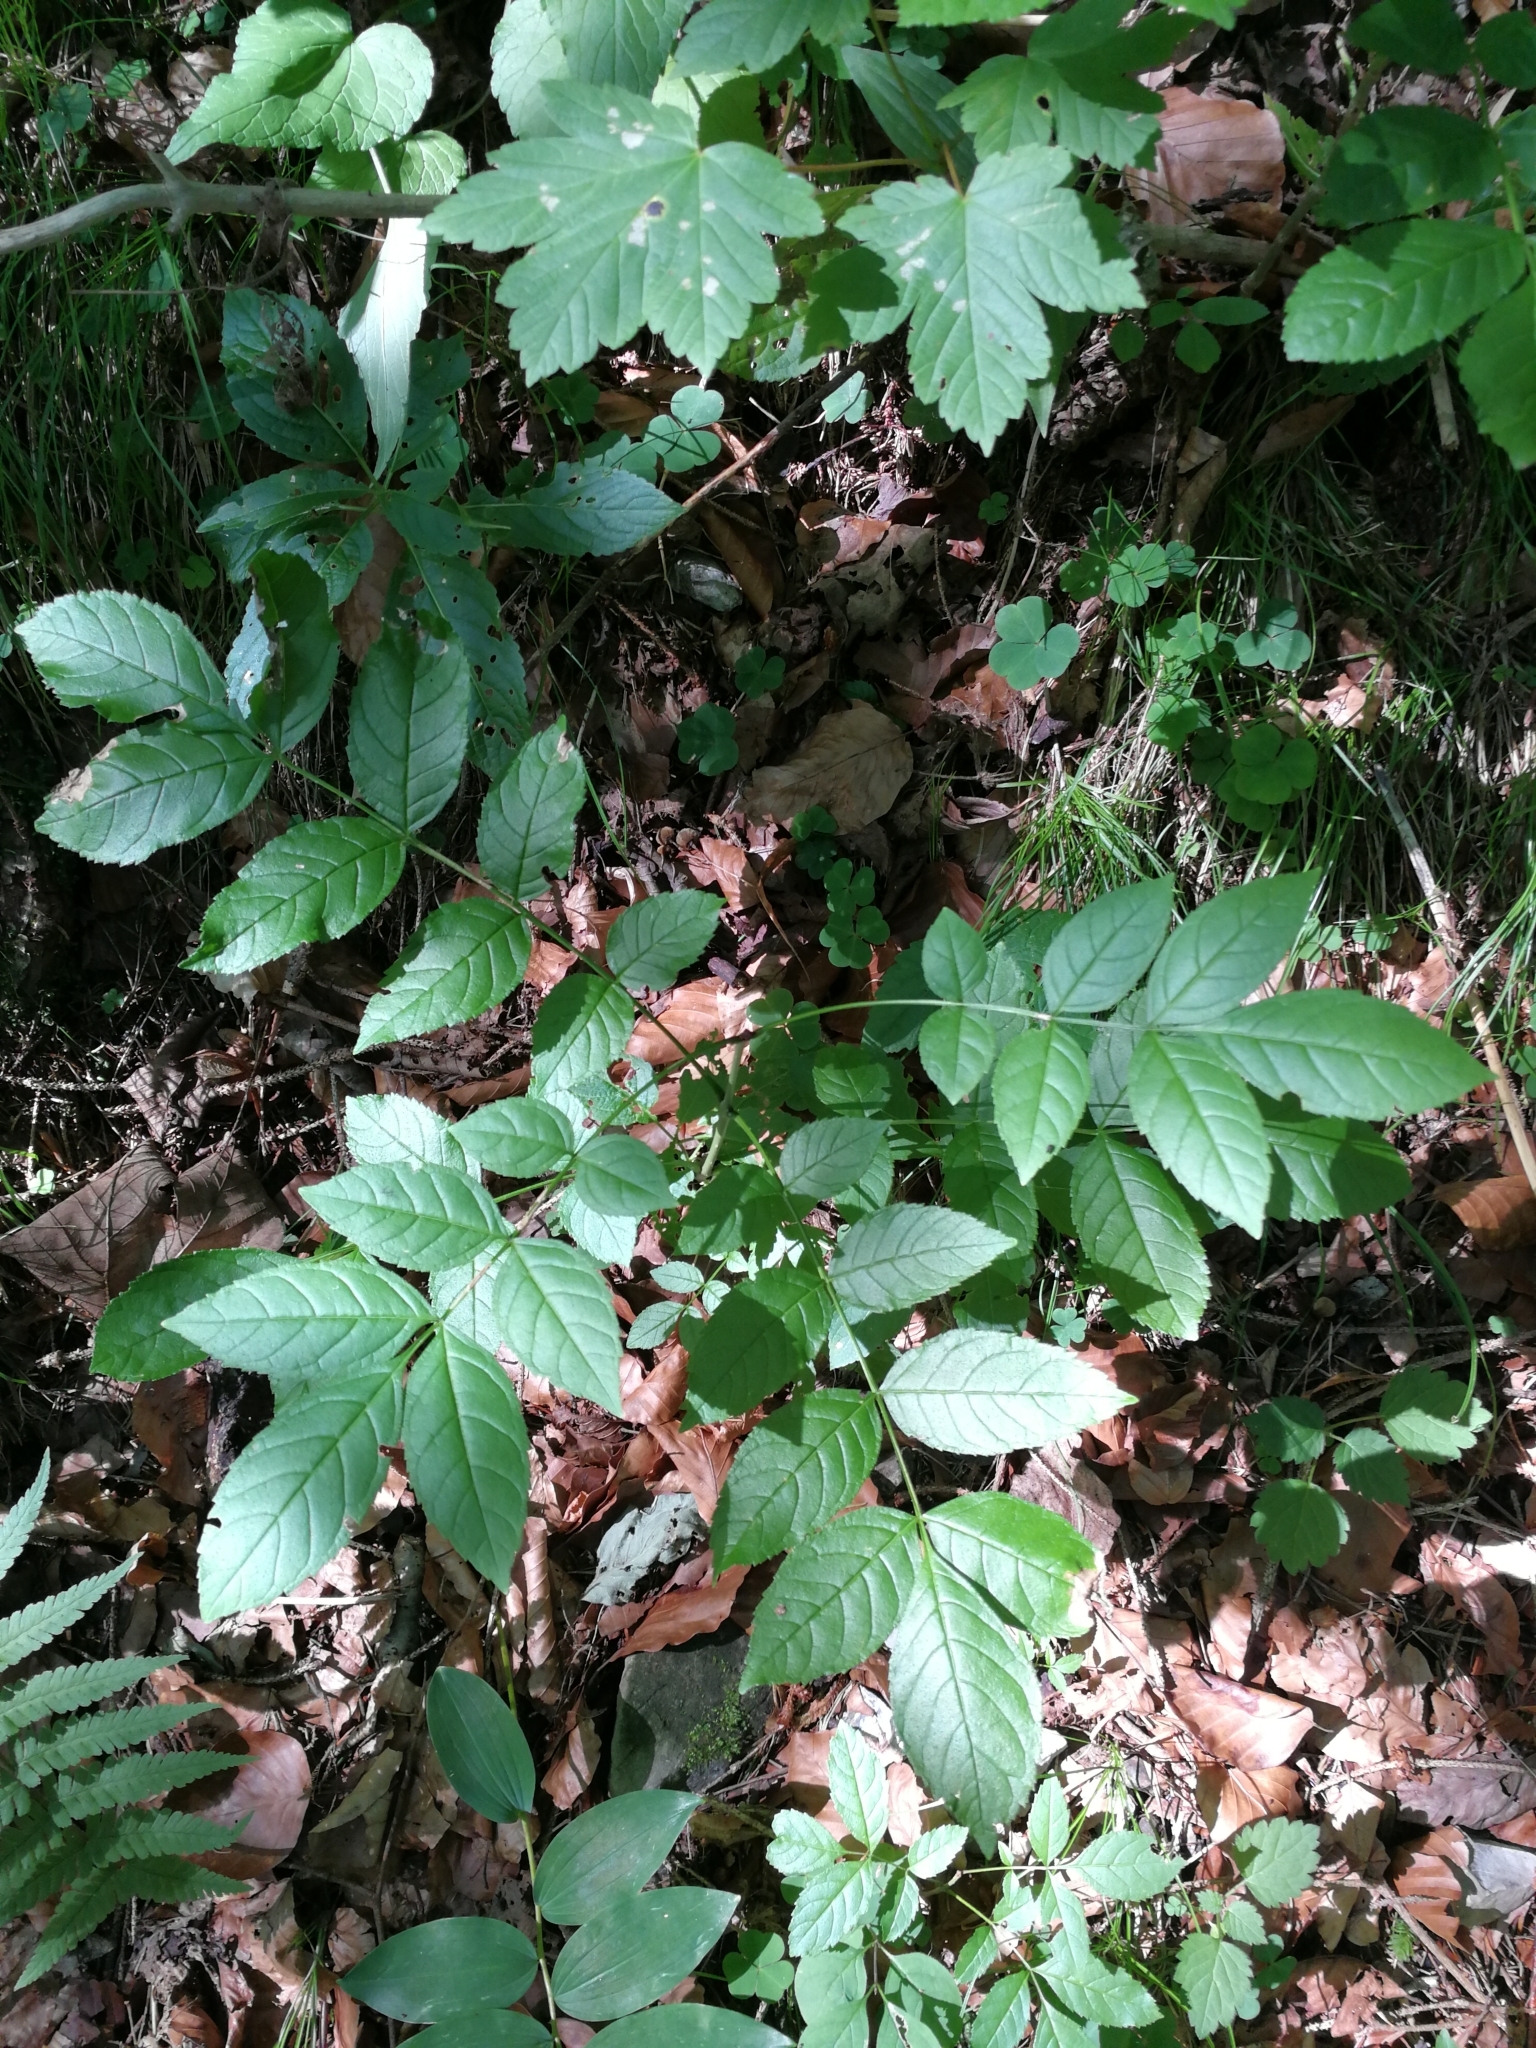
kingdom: Plantae
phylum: Tracheophyta
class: Magnoliopsida
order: Lamiales
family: Oleaceae
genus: Fraxinus
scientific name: Fraxinus excelsior
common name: European ash
